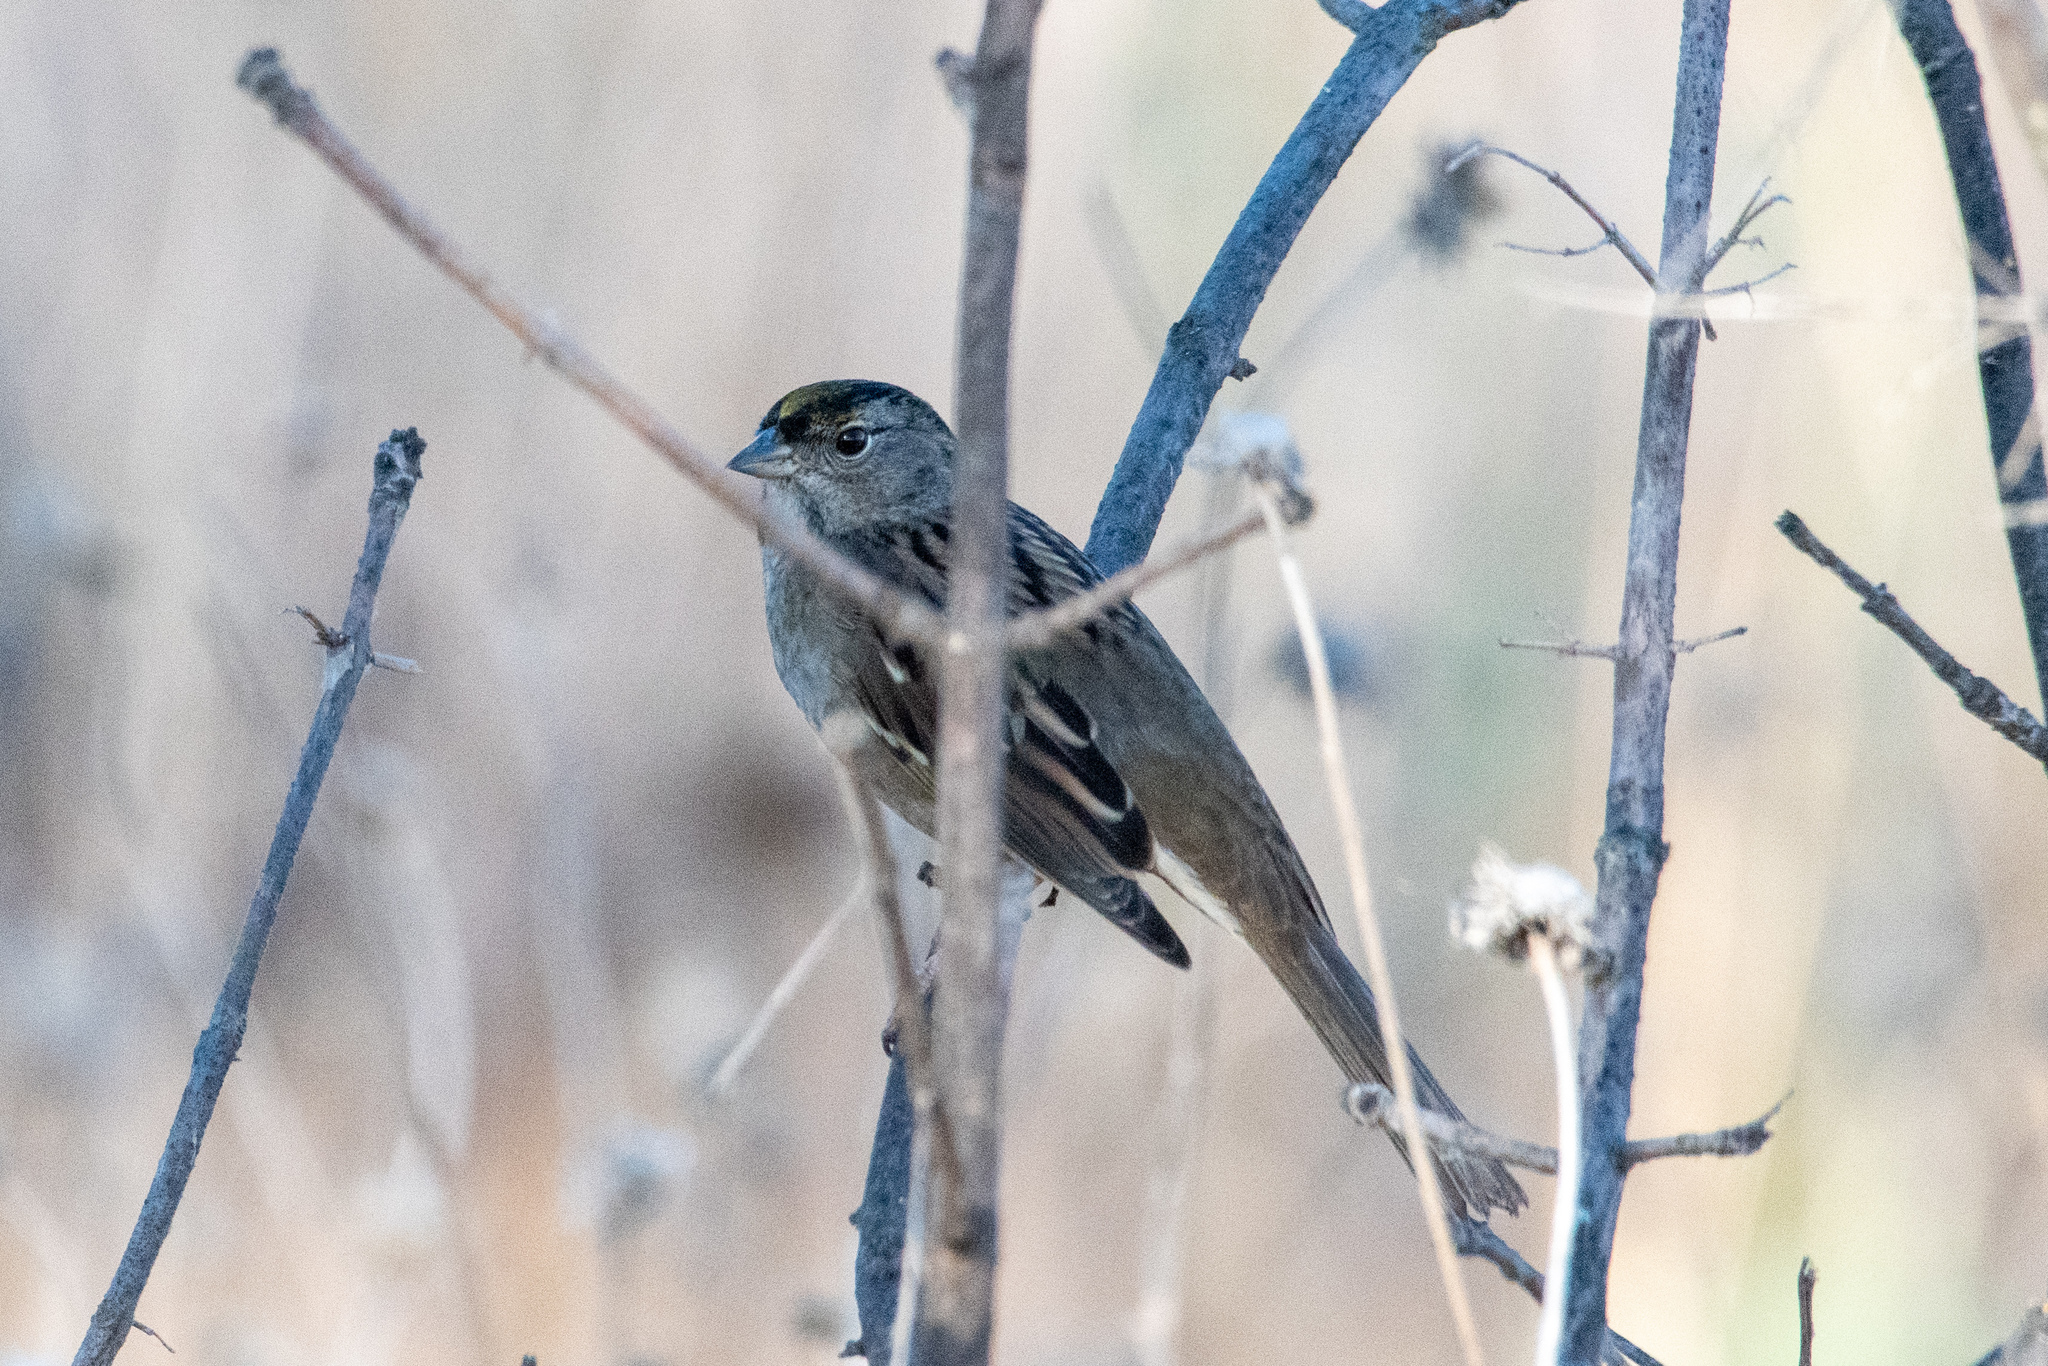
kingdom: Animalia
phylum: Chordata
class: Aves
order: Passeriformes
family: Passerellidae
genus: Zonotrichia
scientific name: Zonotrichia atricapilla
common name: Golden-crowned sparrow
